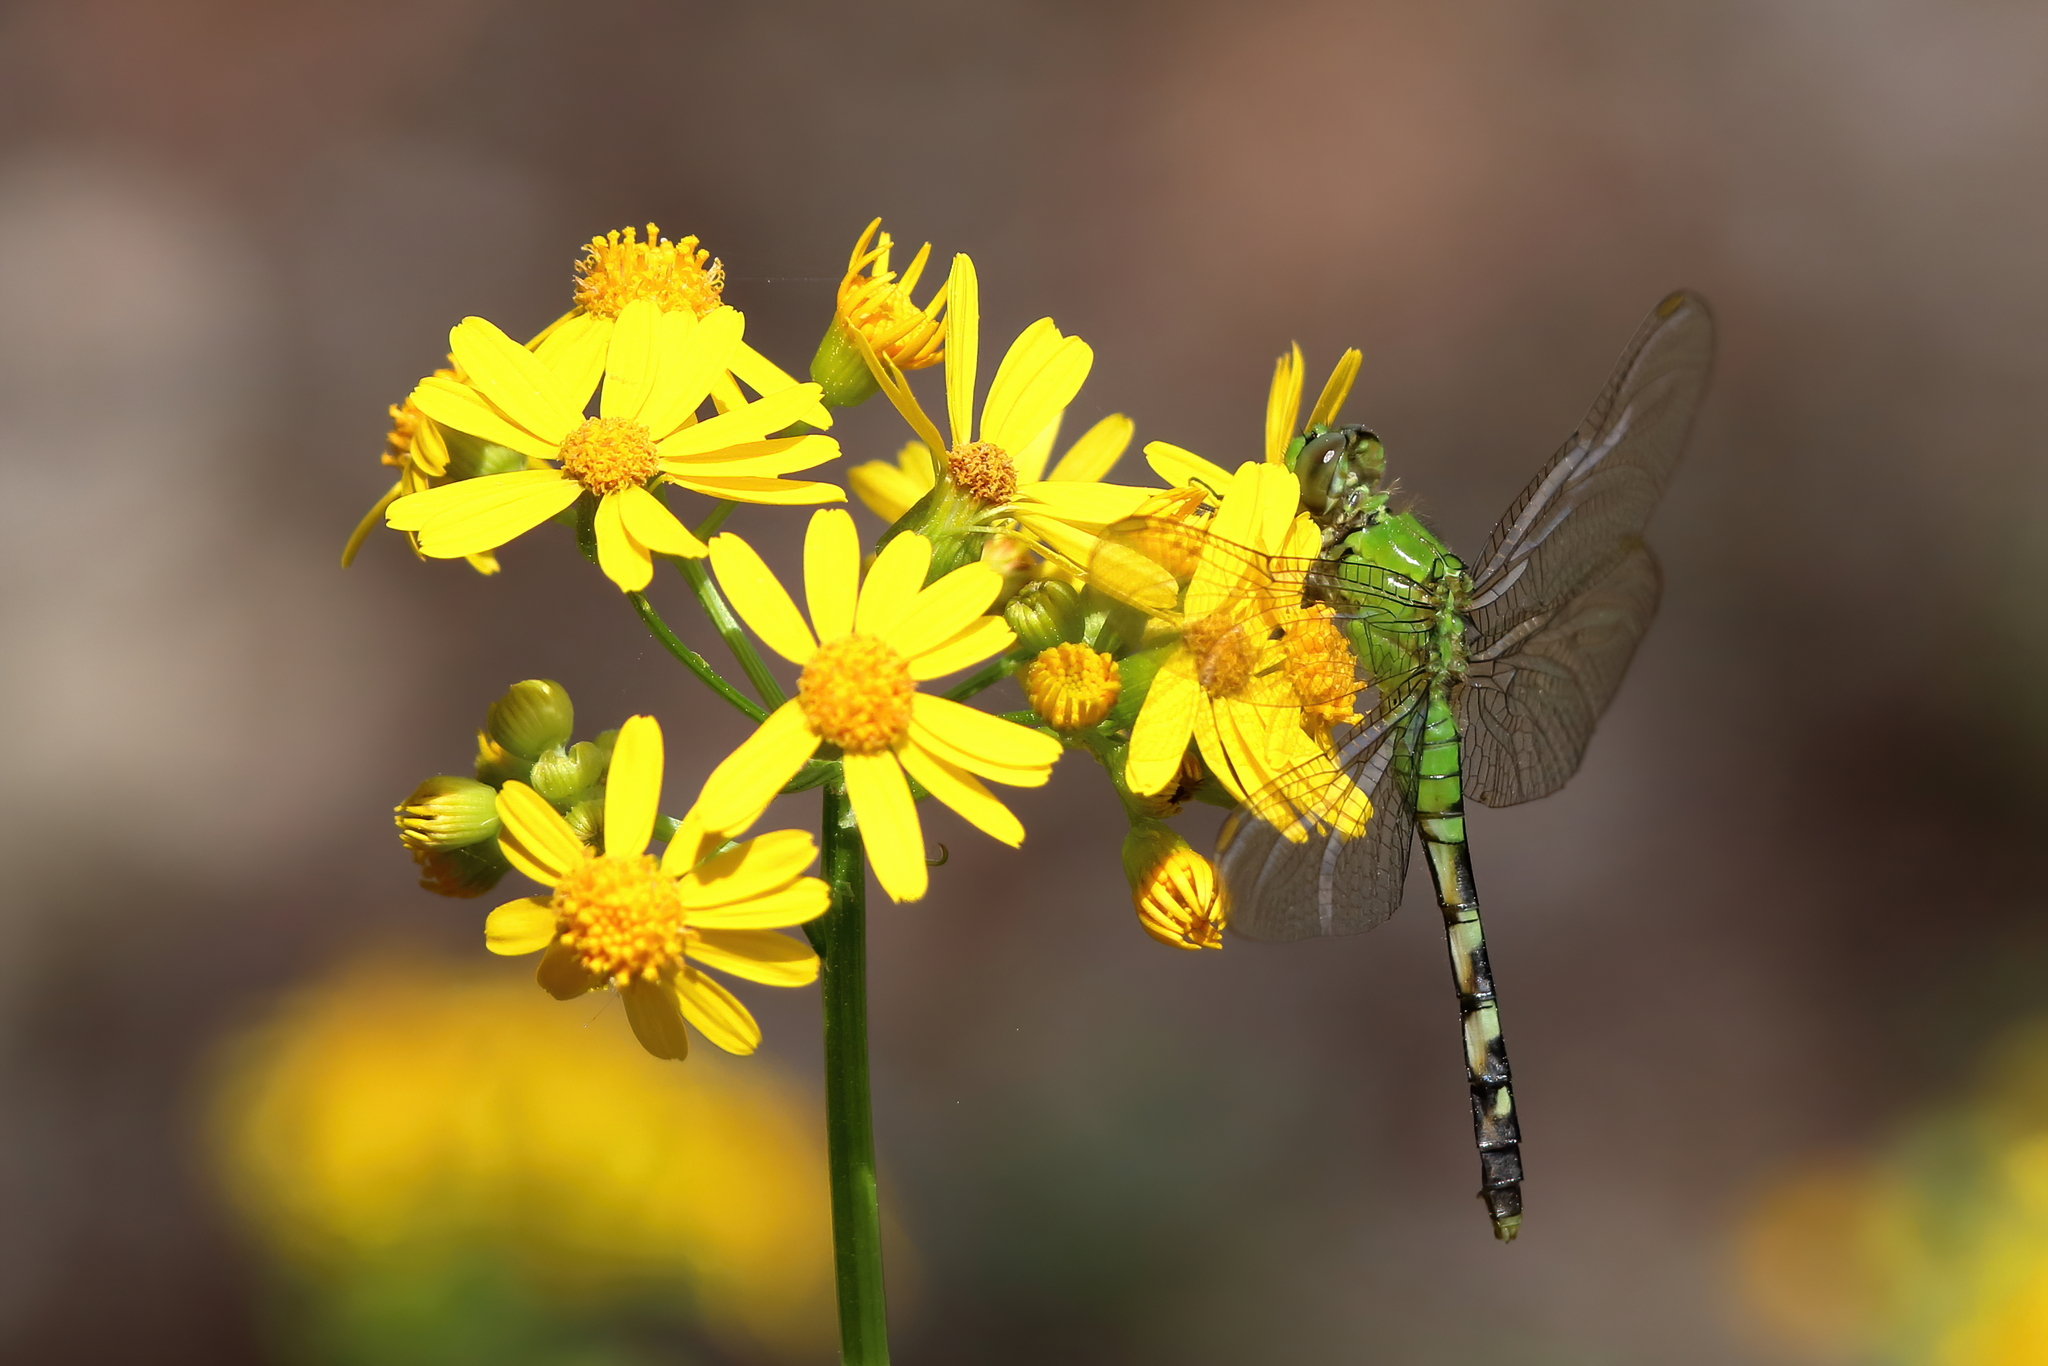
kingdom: Animalia
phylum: Arthropoda
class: Insecta
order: Odonata
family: Libellulidae
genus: Erythemis
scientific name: Erythemis simplicicollis
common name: Eastern pondhawk
